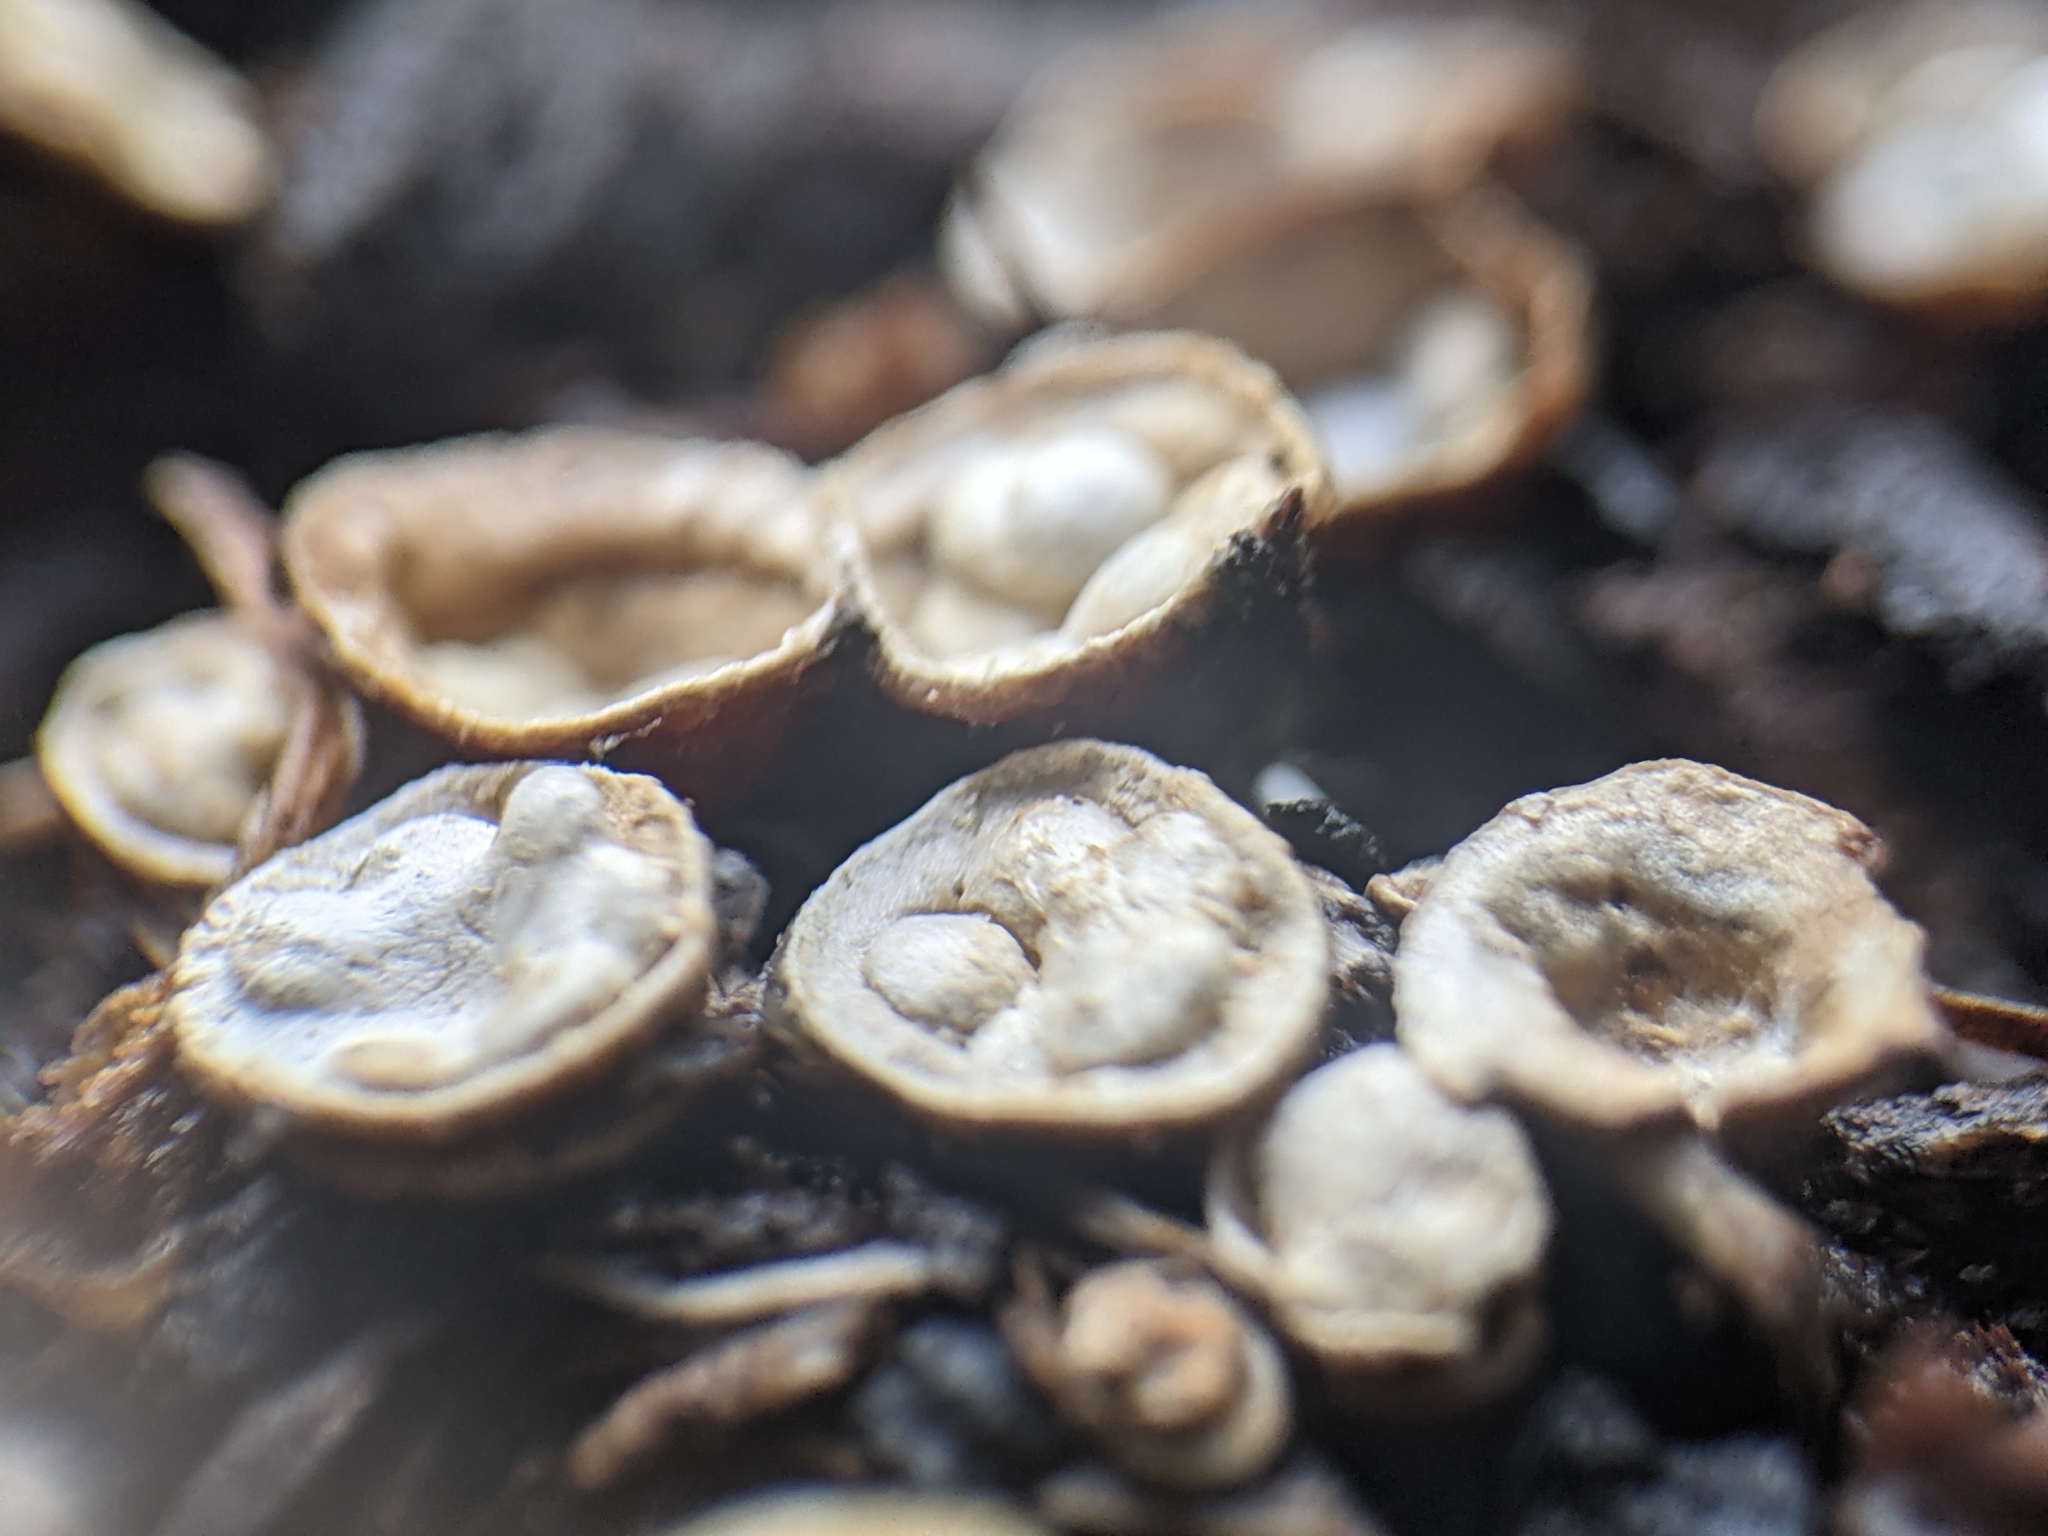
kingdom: Fungi
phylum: Basidiomycota
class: Agaricomycetes
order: Agaricales
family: Nidulariaceae
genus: Crucibulum
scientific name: Crucibulum laeve
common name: Common bird's nest
